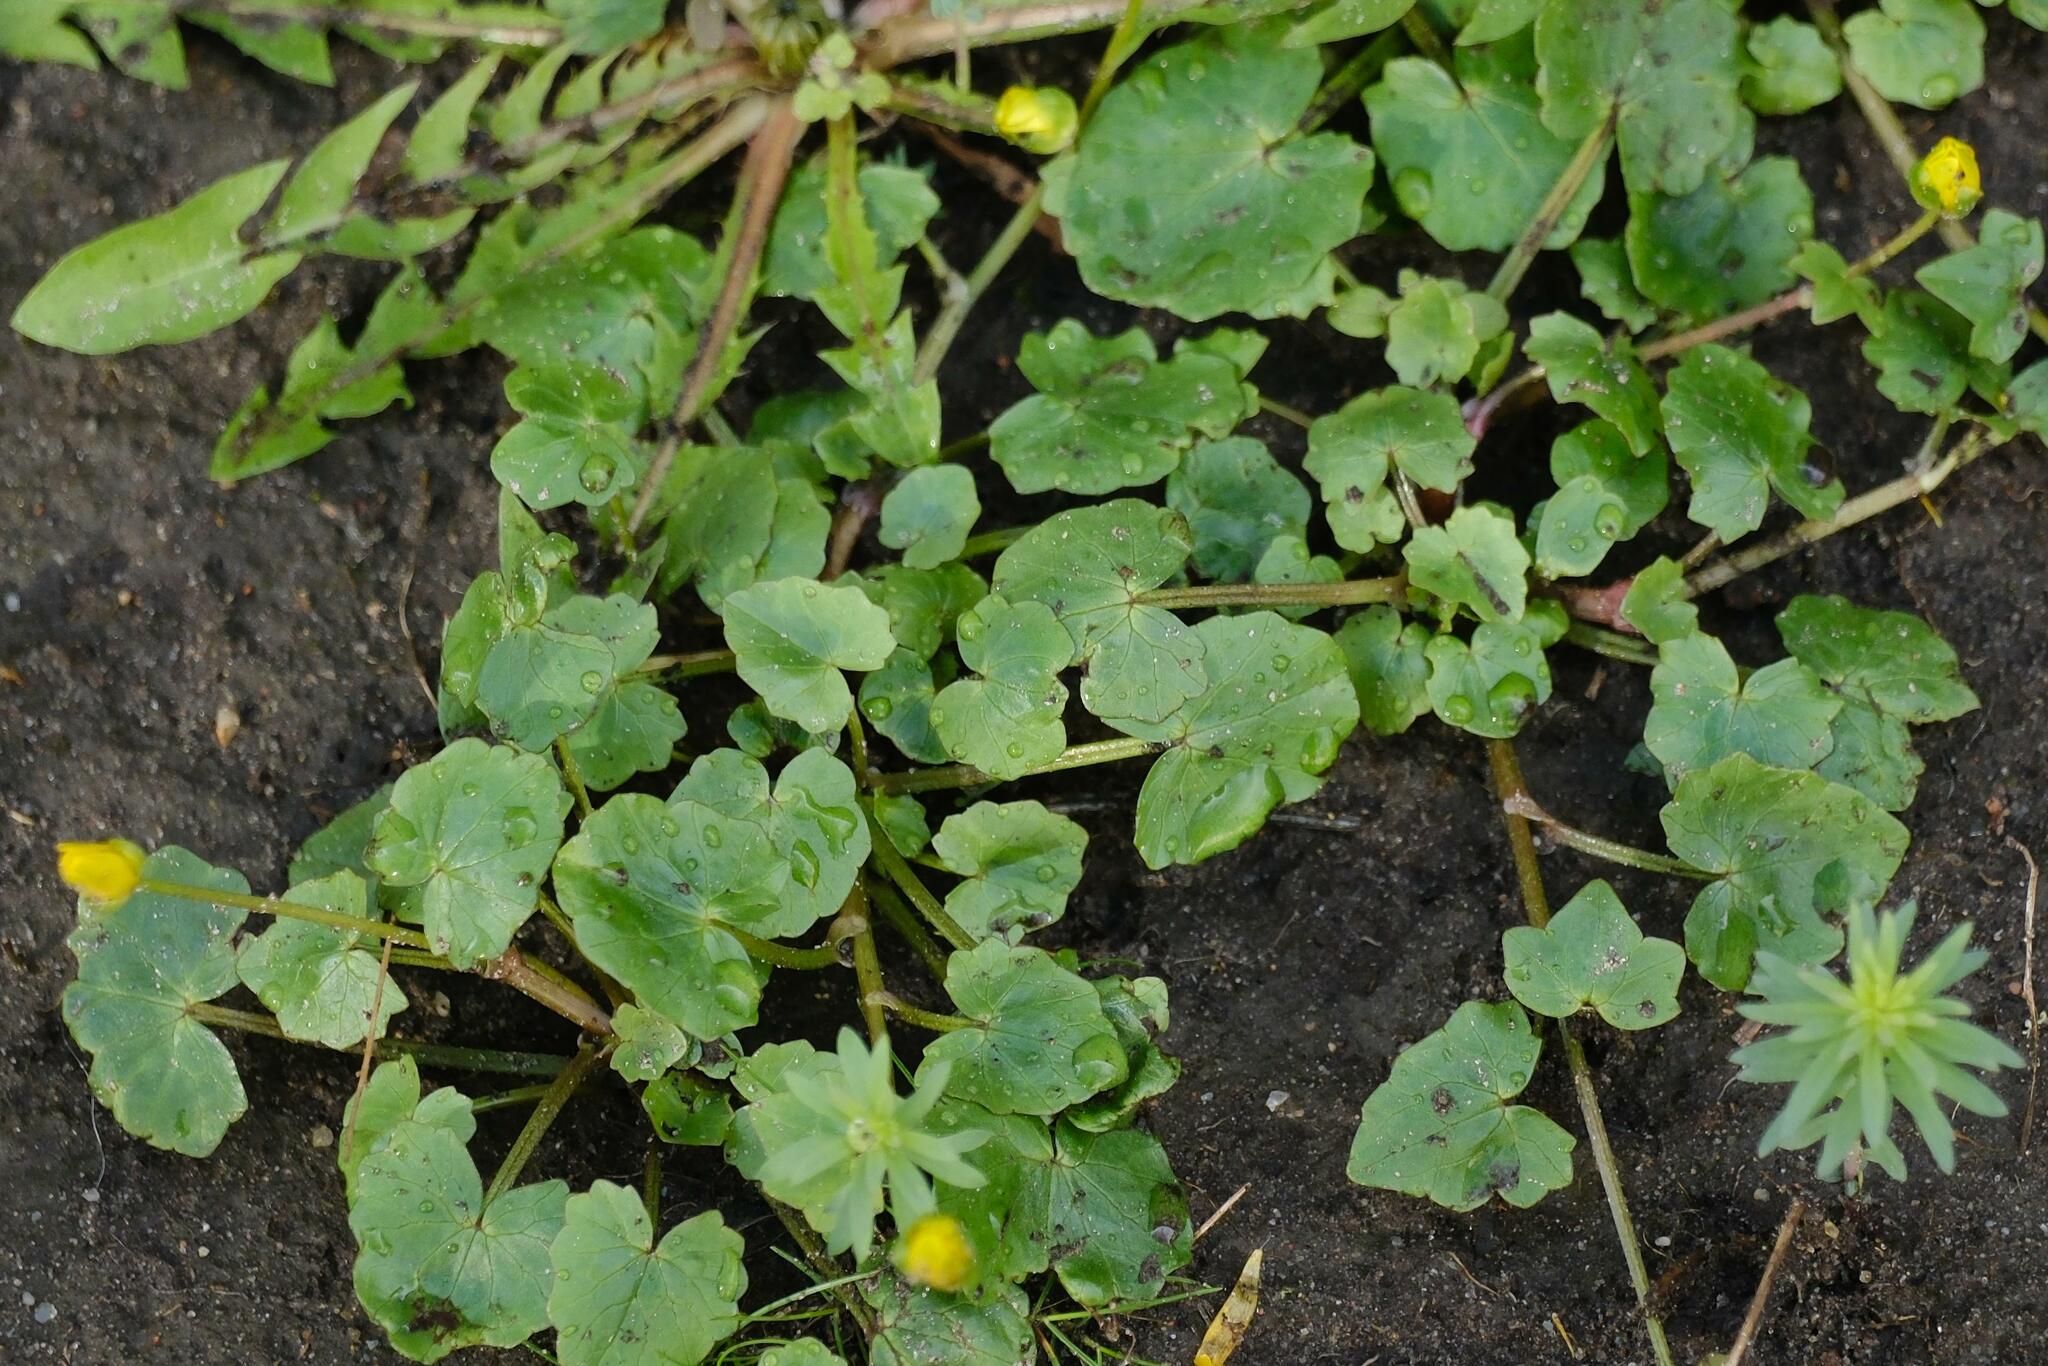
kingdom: Plantae
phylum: Tracheophyta
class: Magnoliopsida
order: Ranunculales
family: Ranunculaceae
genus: Ficaria
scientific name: Ficaria verna
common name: Lesser celandine
